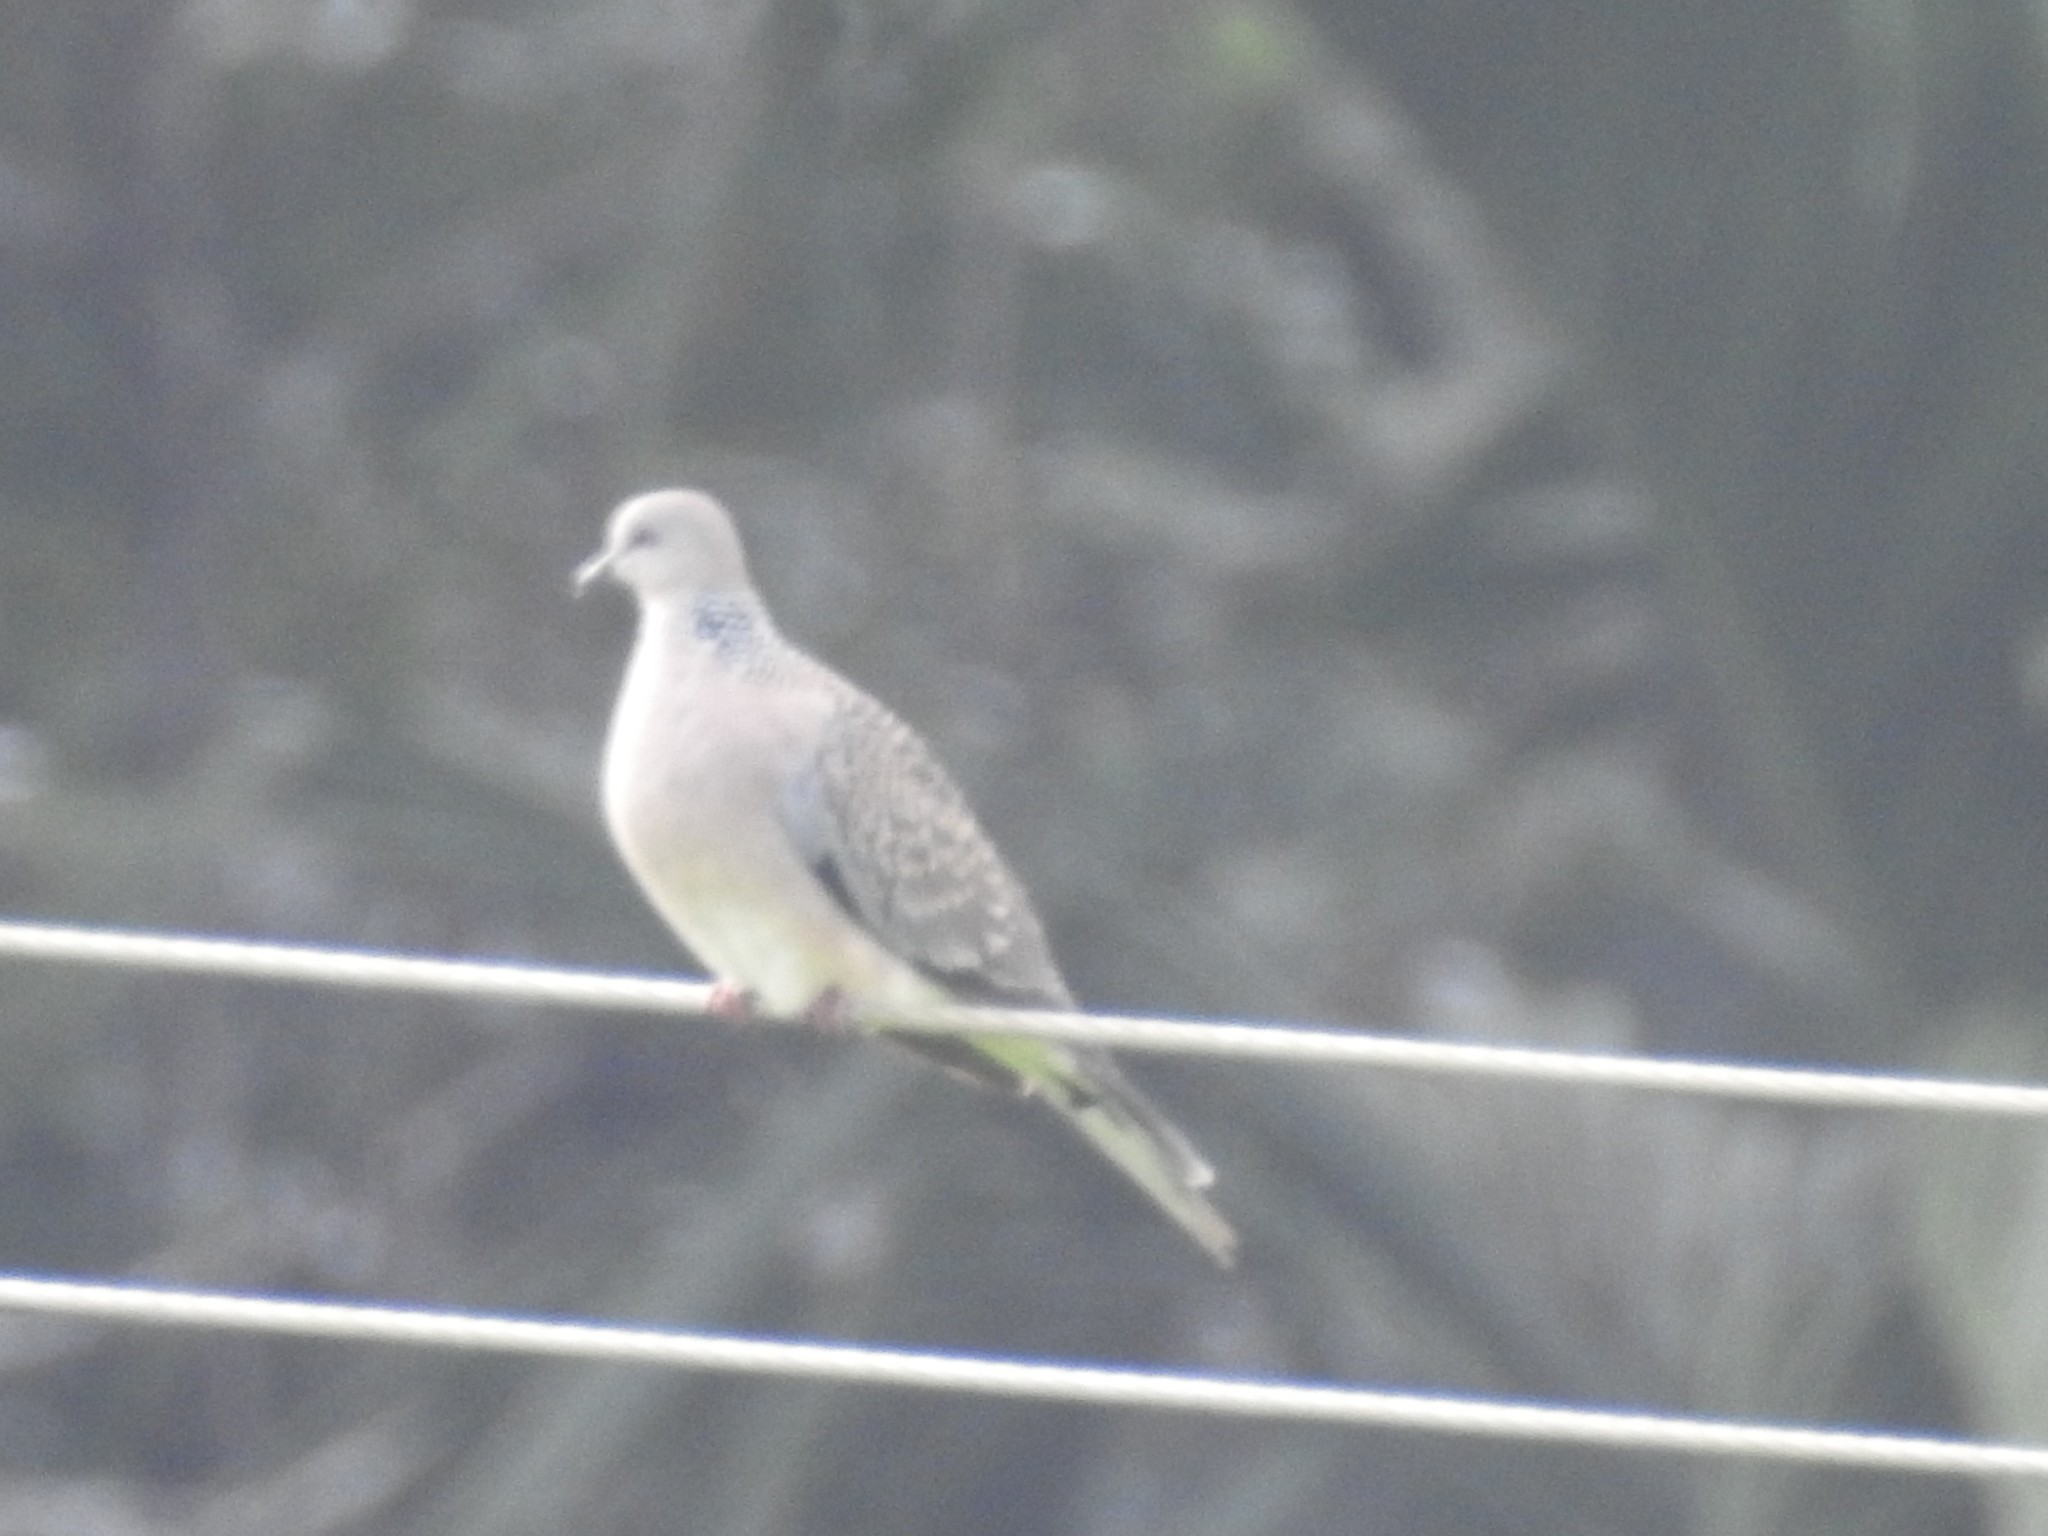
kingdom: Animalia
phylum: Chordata
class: Aves
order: Columbiformes
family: Columbidae
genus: Spilopelia
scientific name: Spilopelia chinensis
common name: Spotted dove
